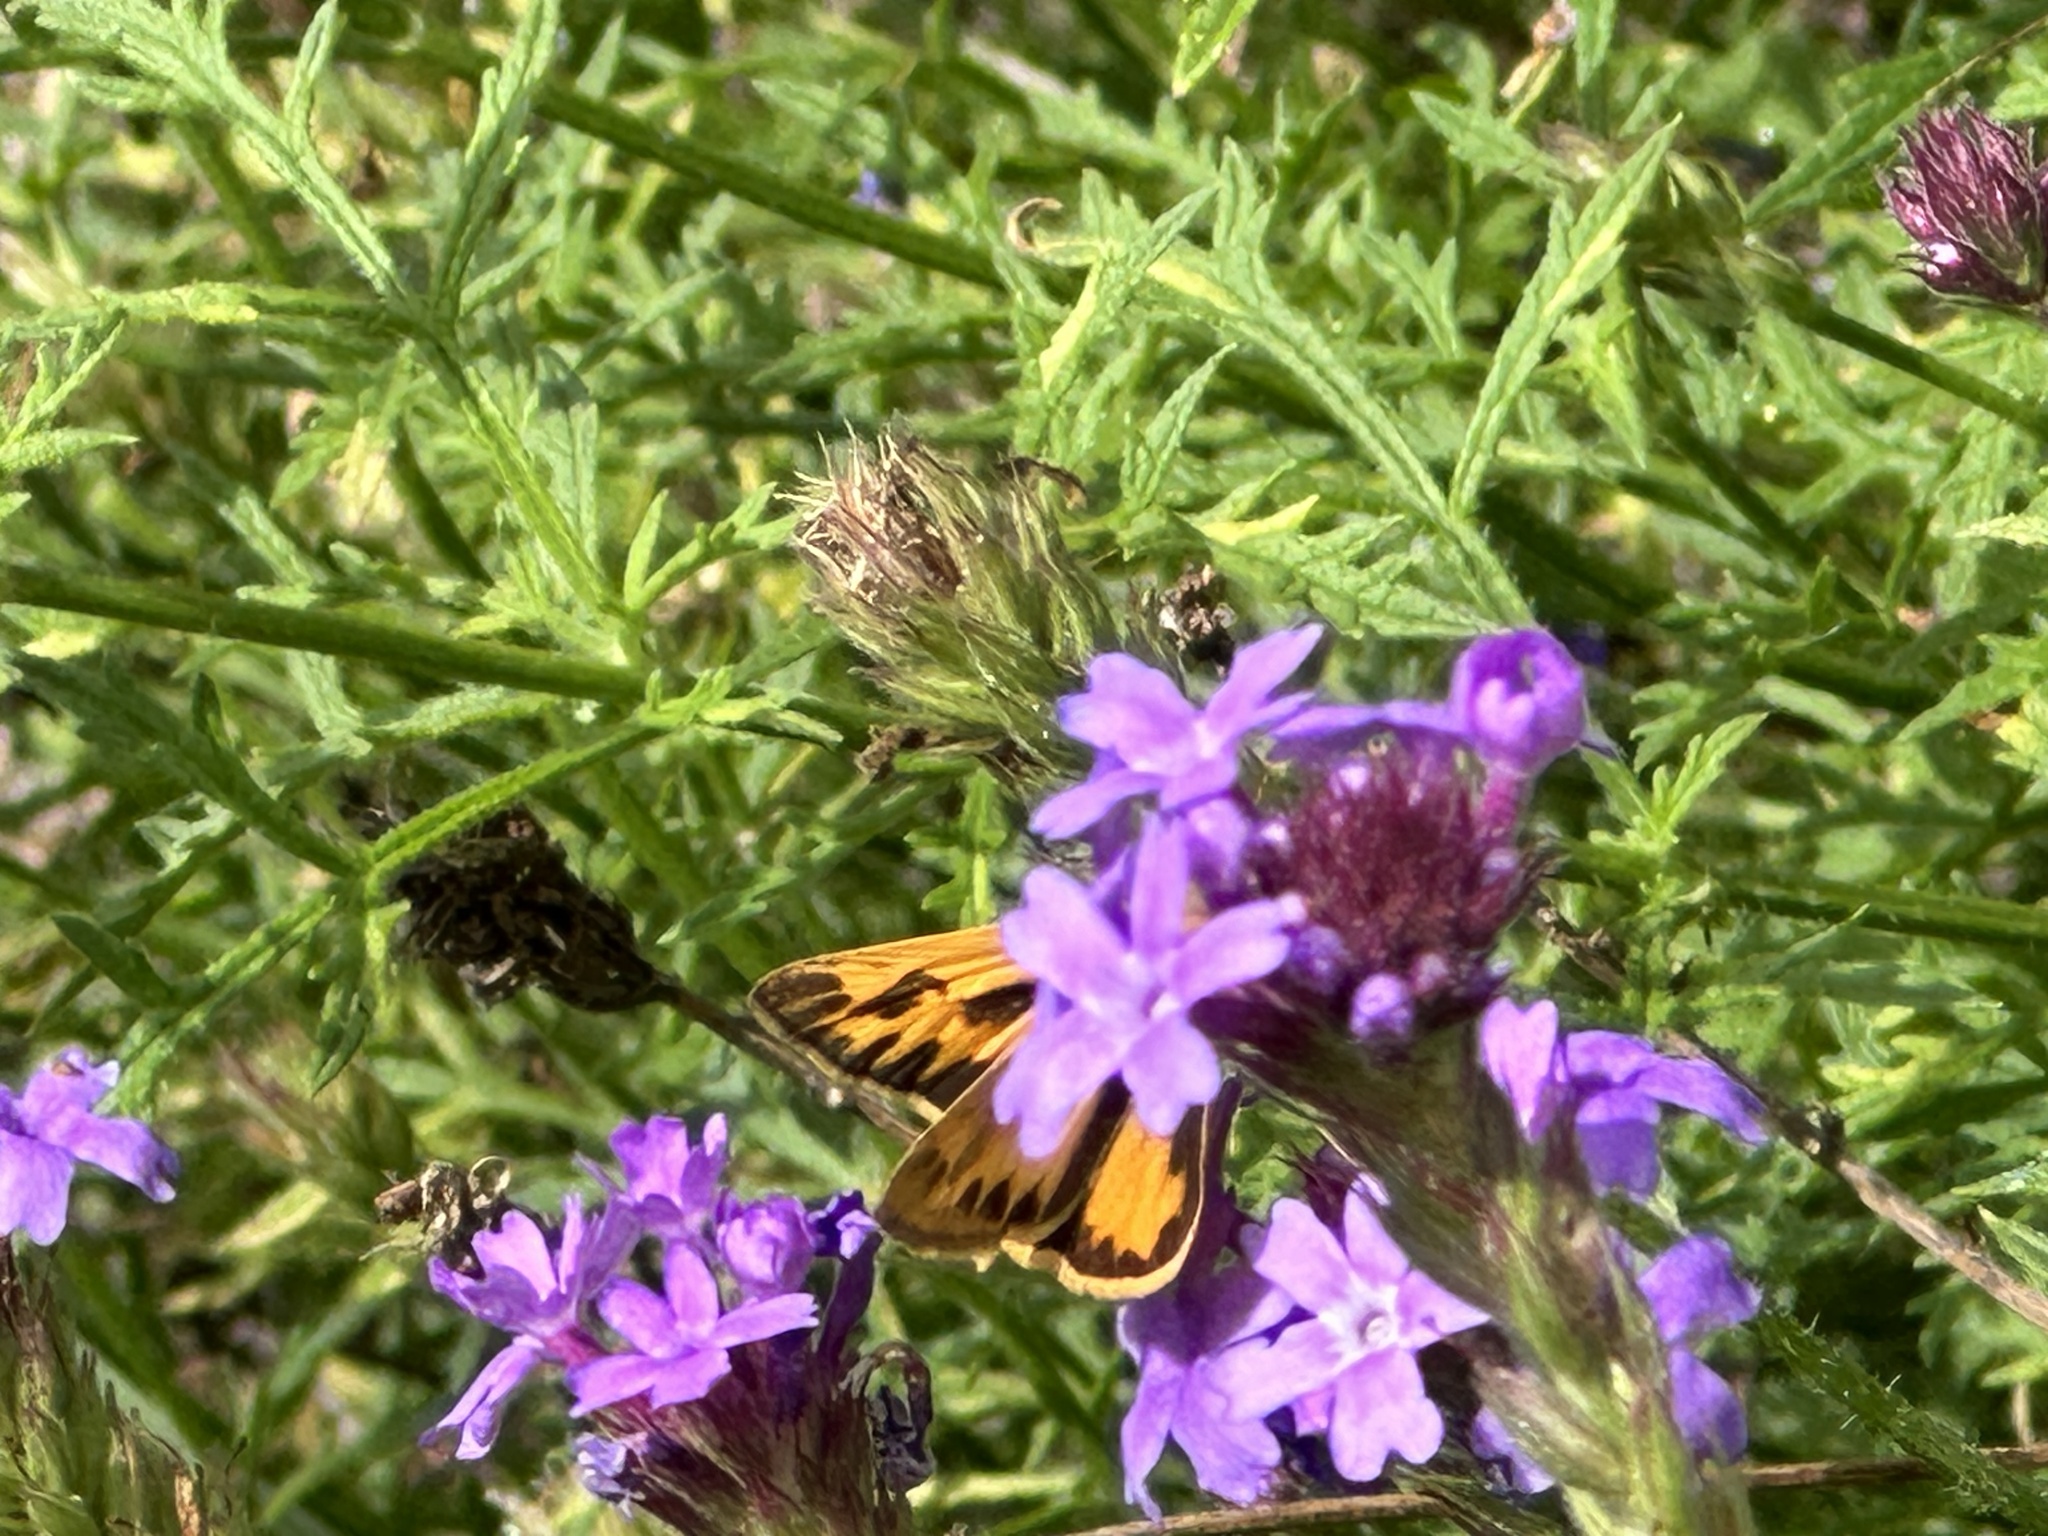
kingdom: Animalia
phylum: Arthropoda
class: Insecta
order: Lepidoptera
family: Hesperiidae
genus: Hylephila
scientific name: Hylephila phyleus
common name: Fiery skipper
